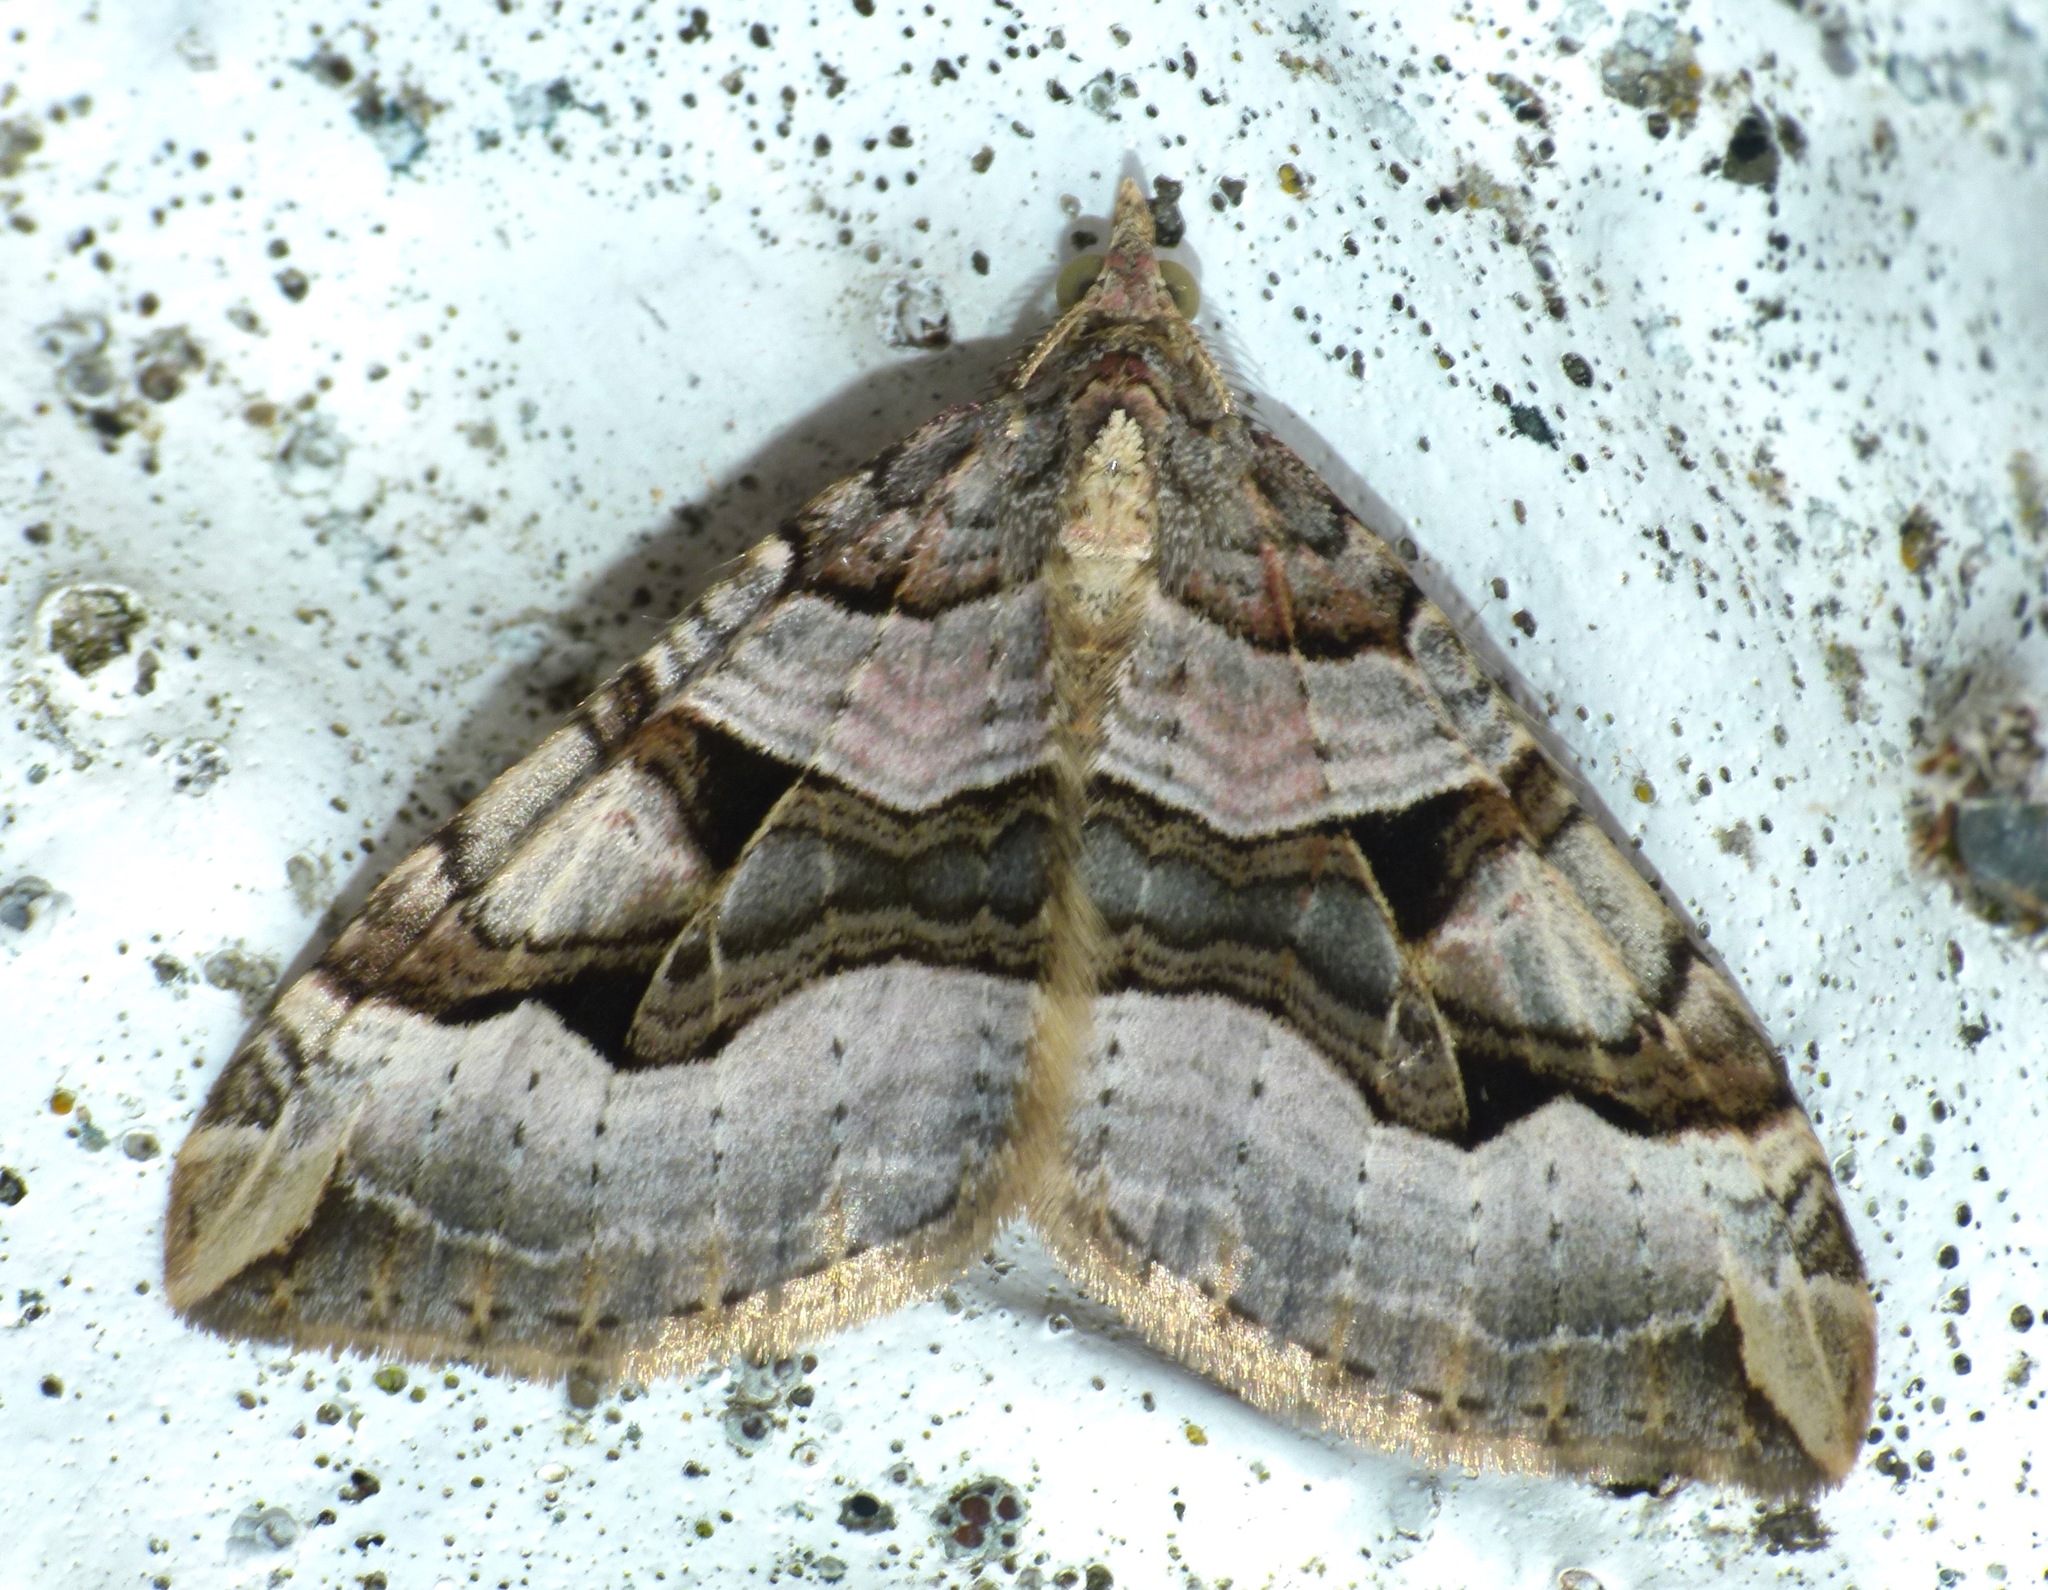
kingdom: Animalia
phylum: Arthropoda
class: Insecta
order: Lepidoptera
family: Geometridae
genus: Xanthorhoe
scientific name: Xanthorhoe semifissata
